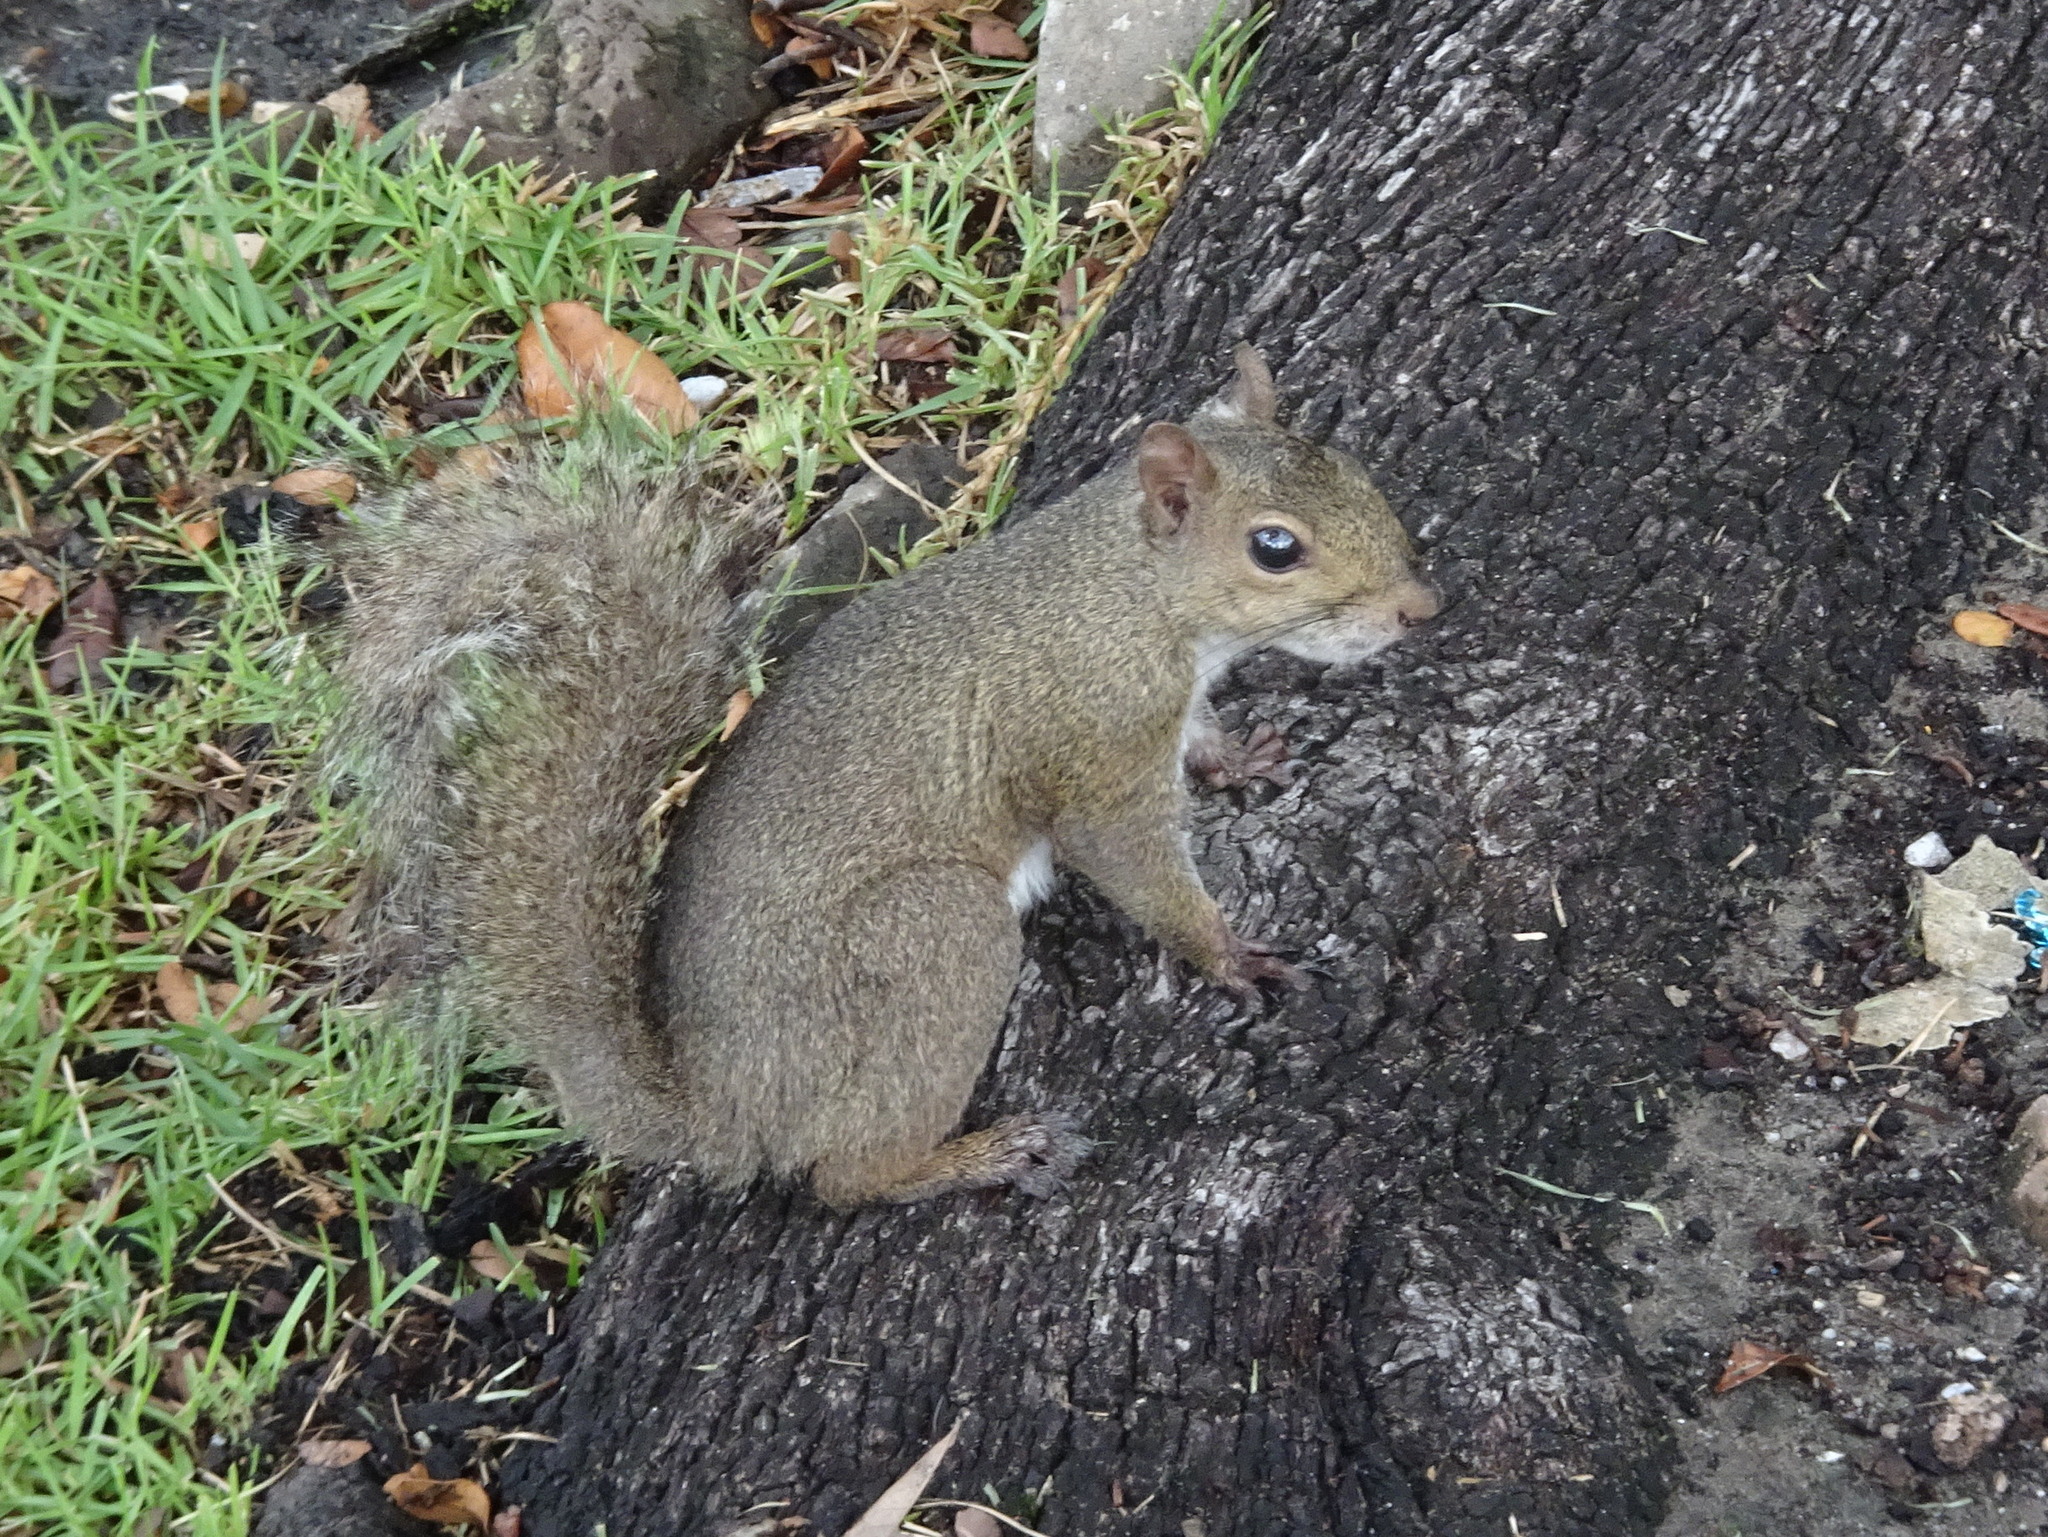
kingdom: Animalia
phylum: Chordata
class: Mammalia
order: Rodentia
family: Sciuridae
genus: Sciurus
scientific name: Sciurus carolinensis
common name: Eastern gray squirrel
